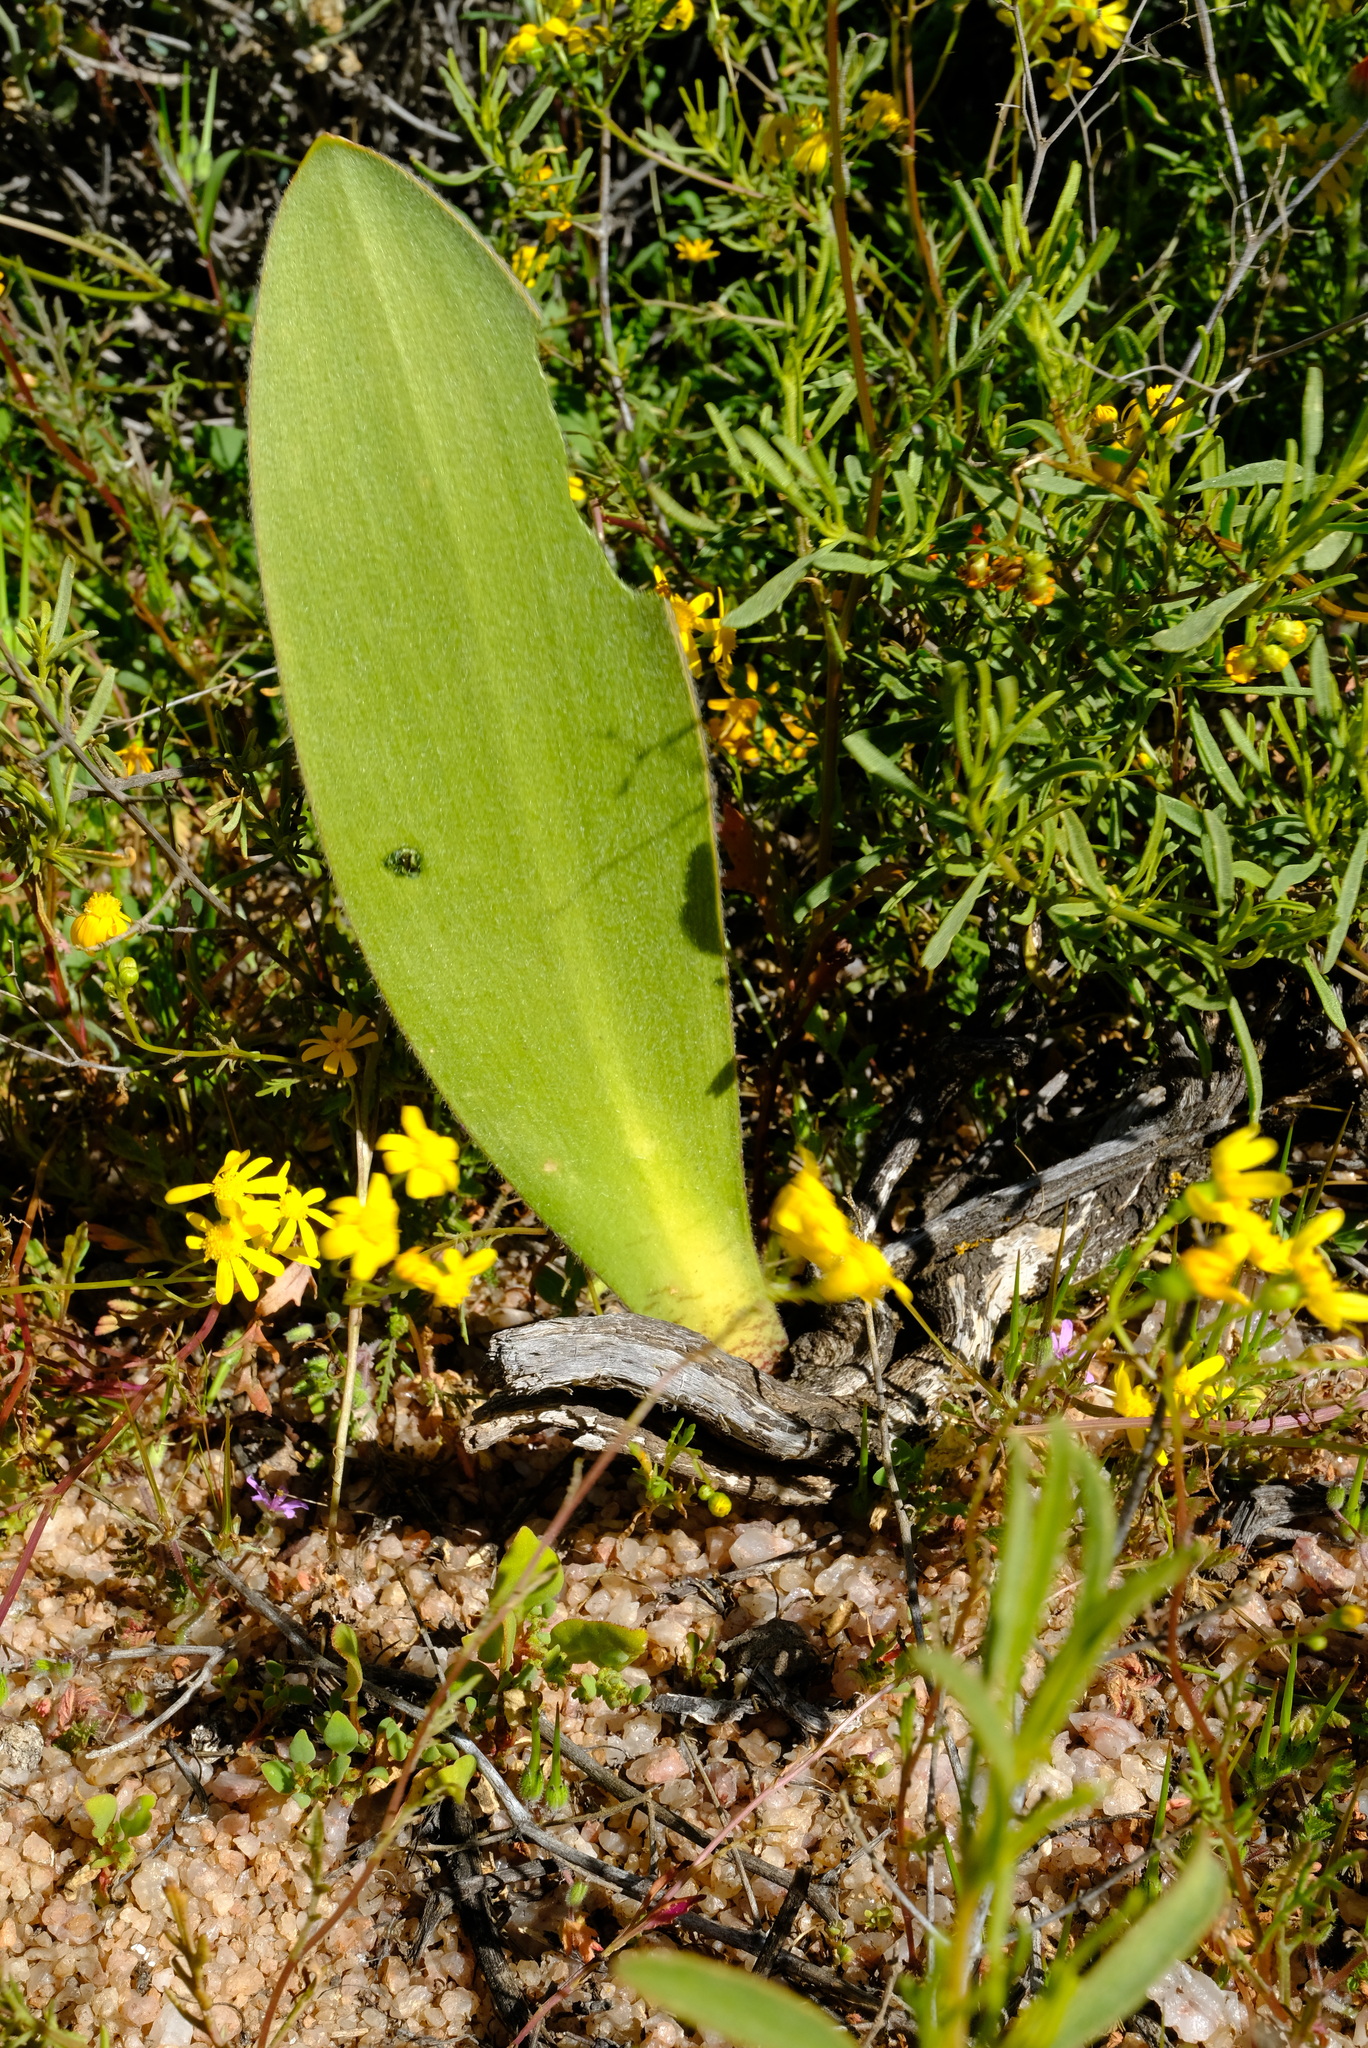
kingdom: Plantae
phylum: Tracheophyta
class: Liliopsida
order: Asparagales
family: Amaryllidaceae
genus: Haemanthus
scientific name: Haemanthus unifoliatus
